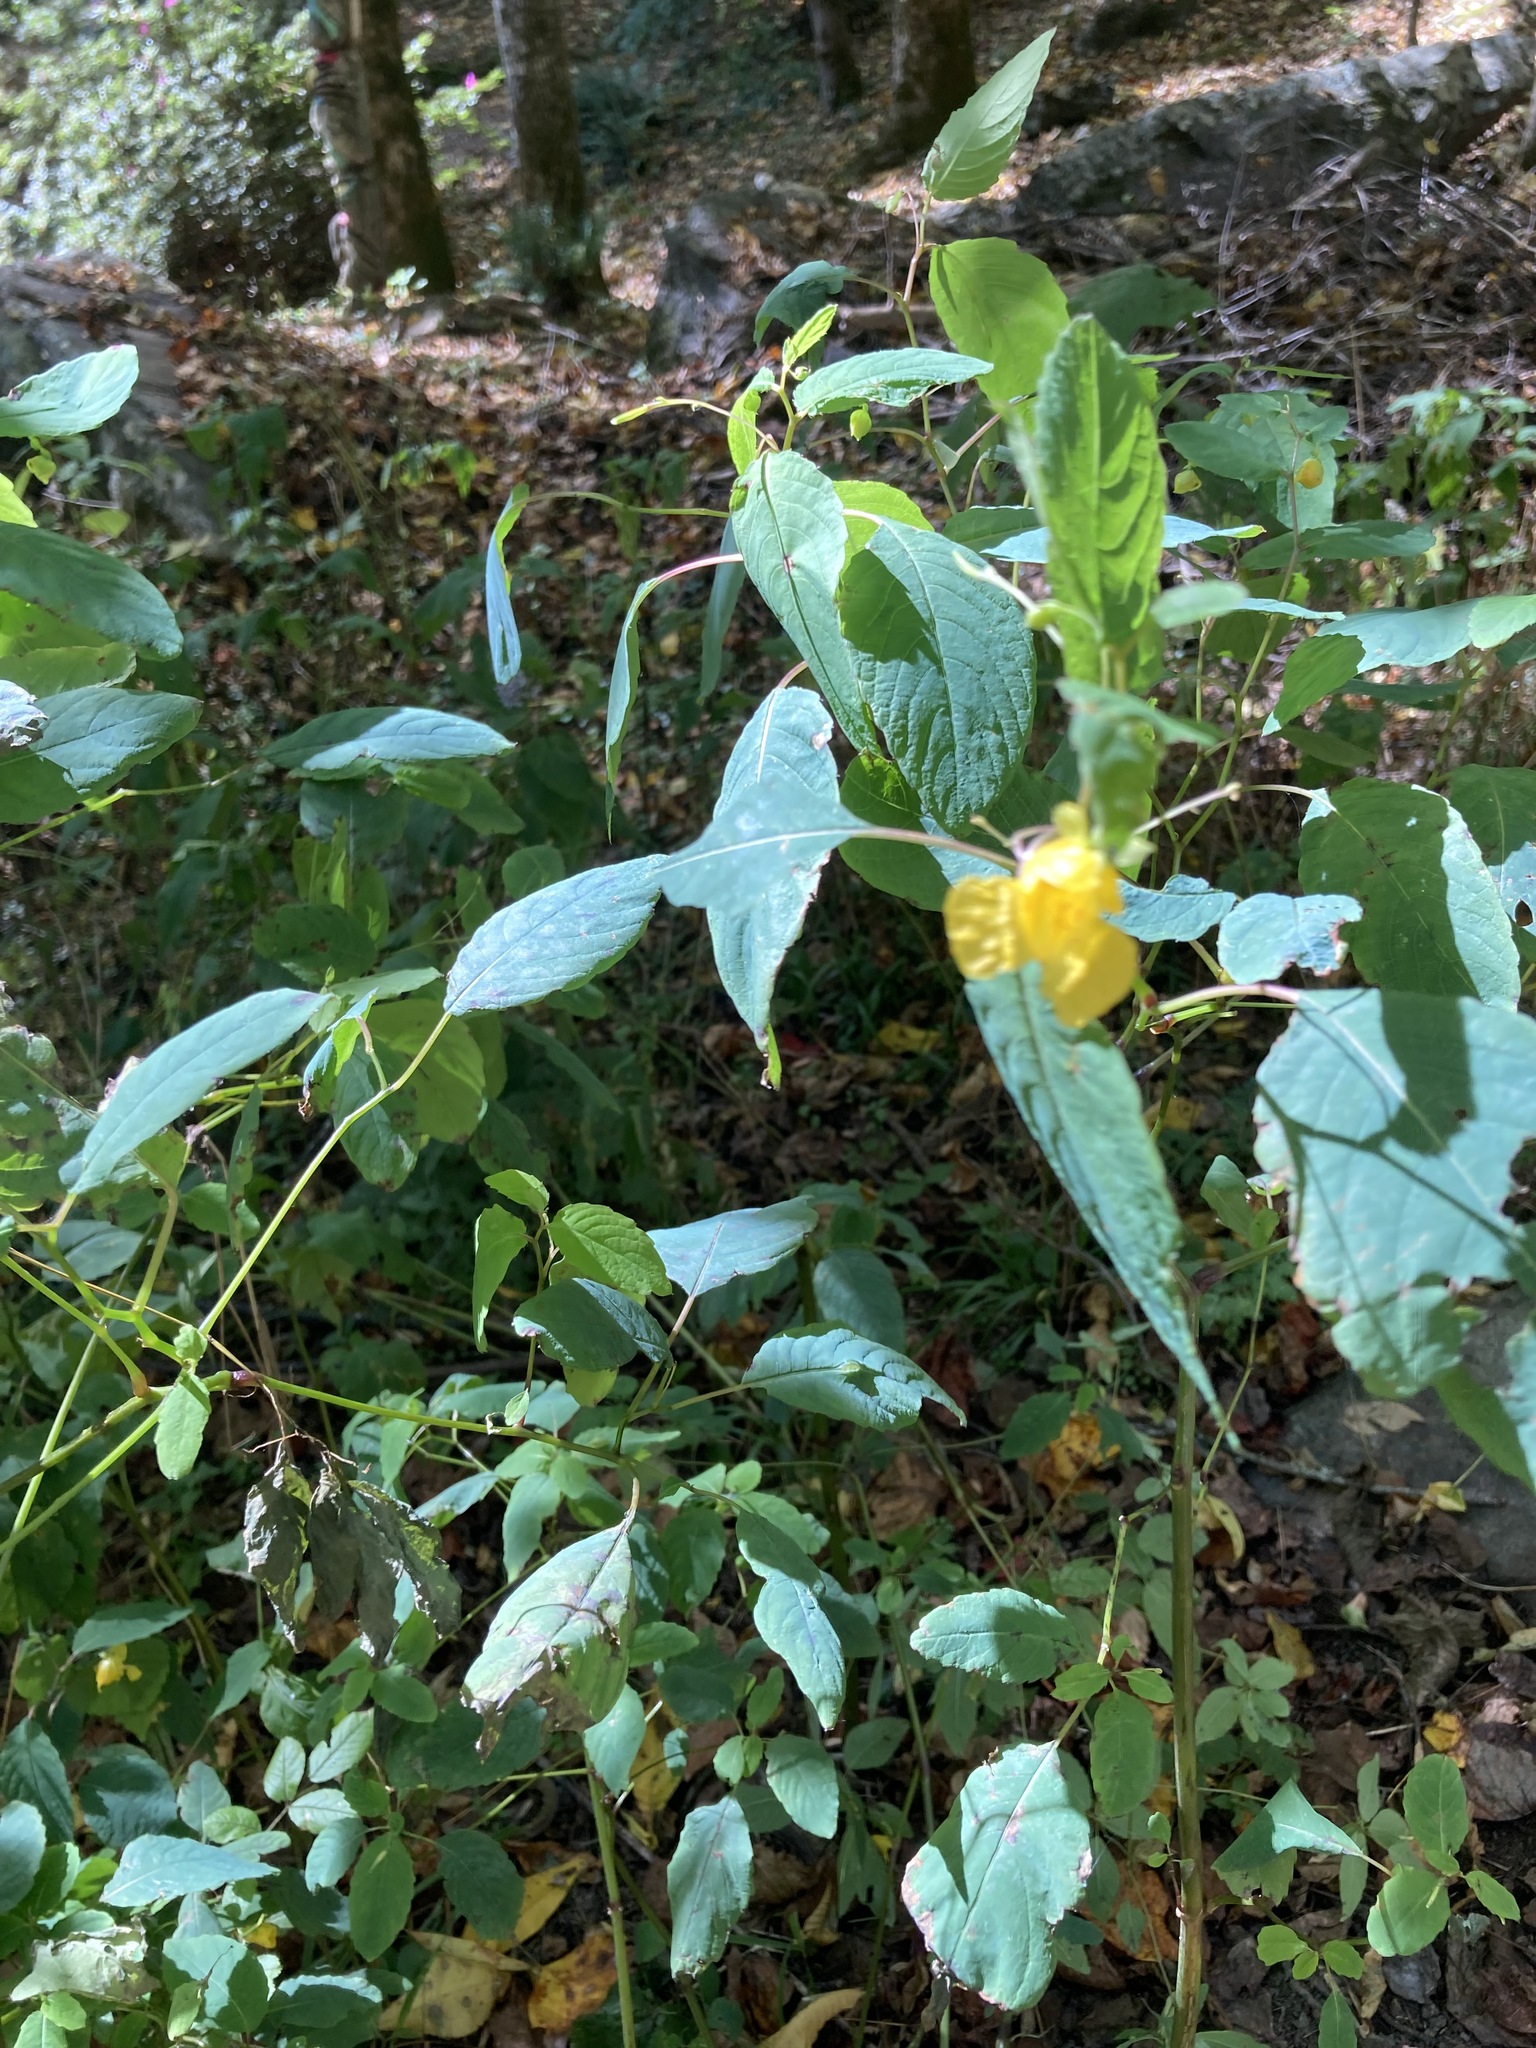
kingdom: Plantae
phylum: Tracheophyta
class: Magnoliopsida
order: Ericales
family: Balsaminaceae
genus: Impatiens
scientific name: Impatiens pallida
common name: Pale snapweed
